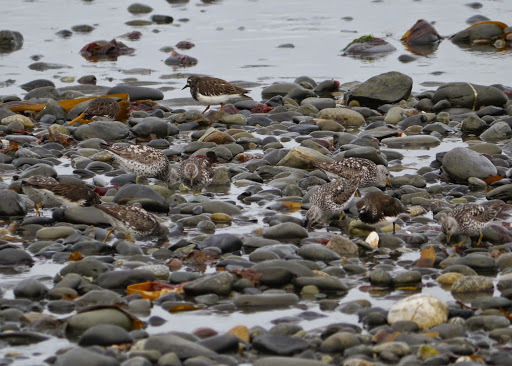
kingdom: Animalia
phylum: Chordata
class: Aves
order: Charadriiformes
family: Scolopacidae
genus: Calidris
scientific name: Calidris virgata
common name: Surfbird
